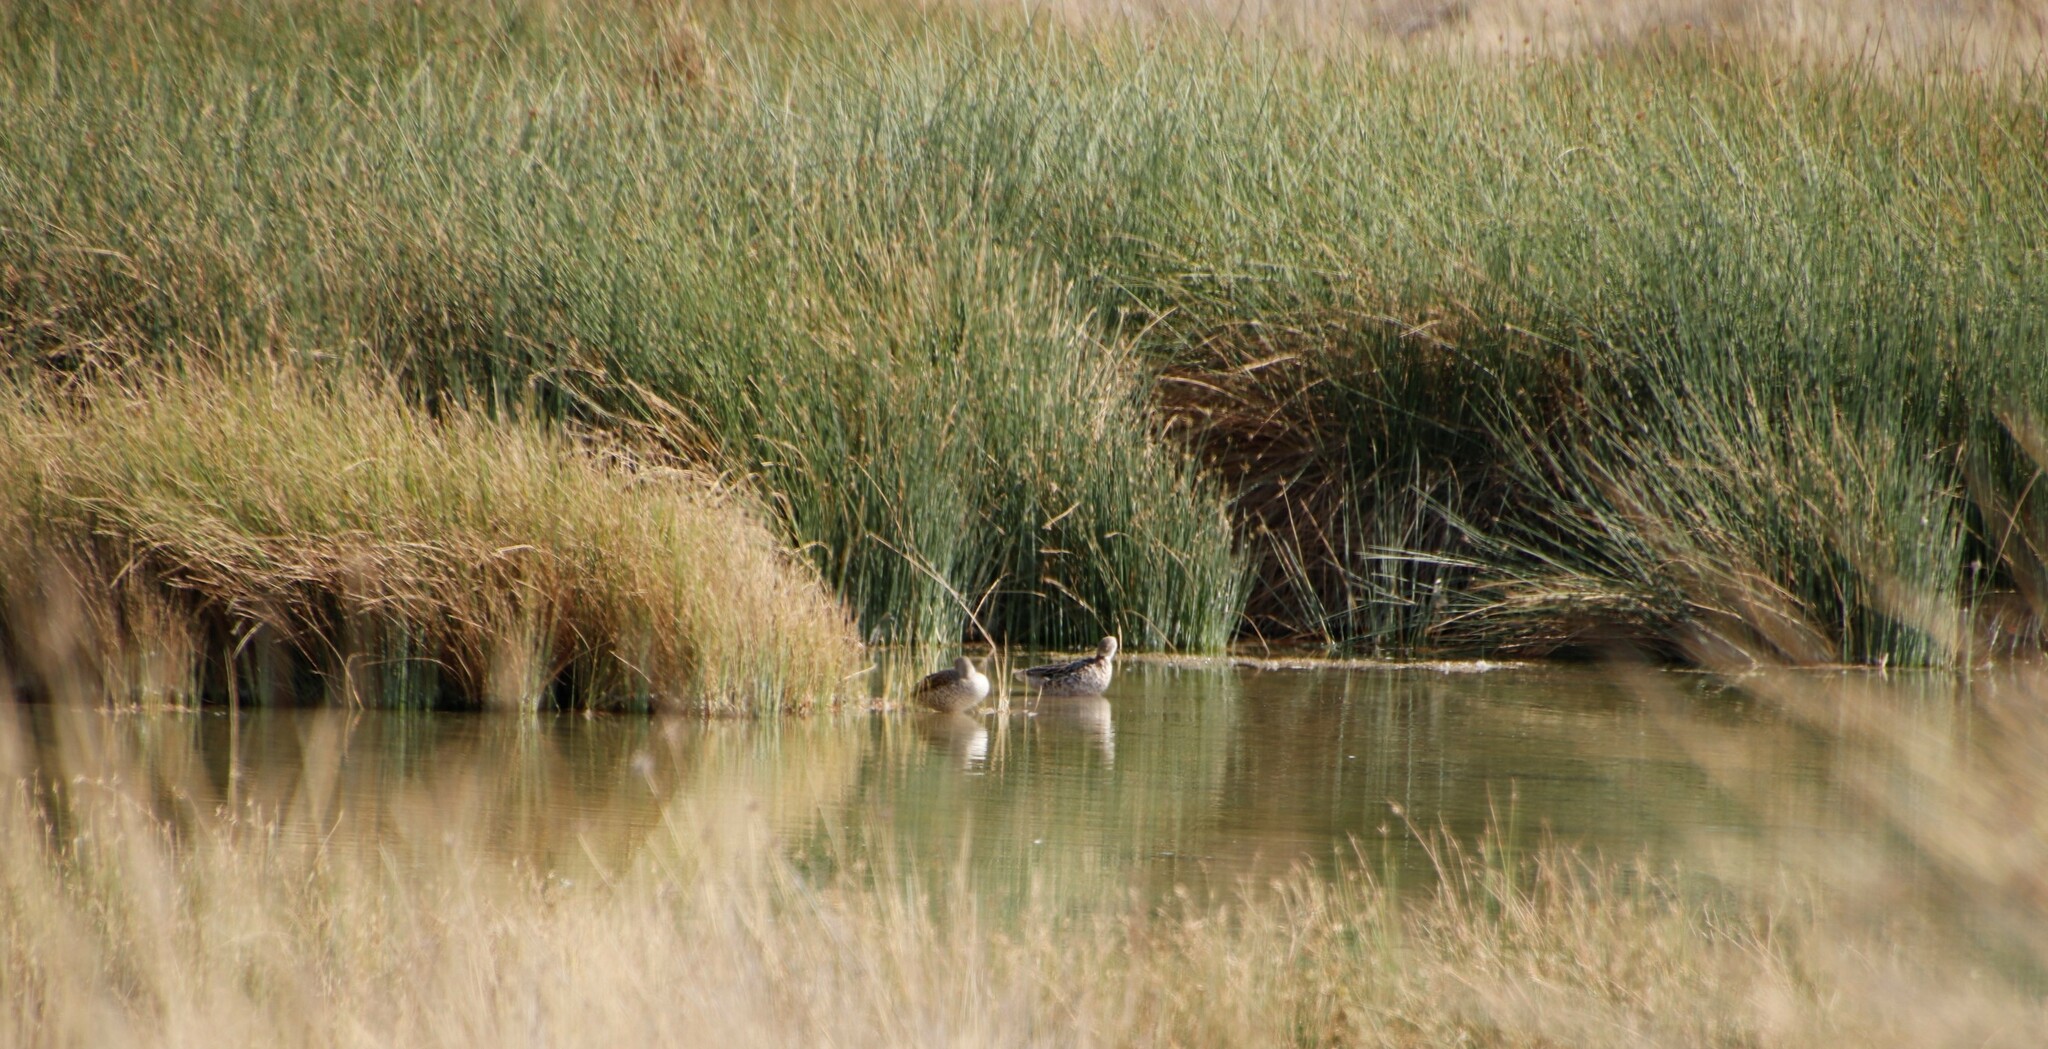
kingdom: Animalia
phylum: Chordata
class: Aves
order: Anseriformes
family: Anatidae
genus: Anas
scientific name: Anas capensis
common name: Cape teal
